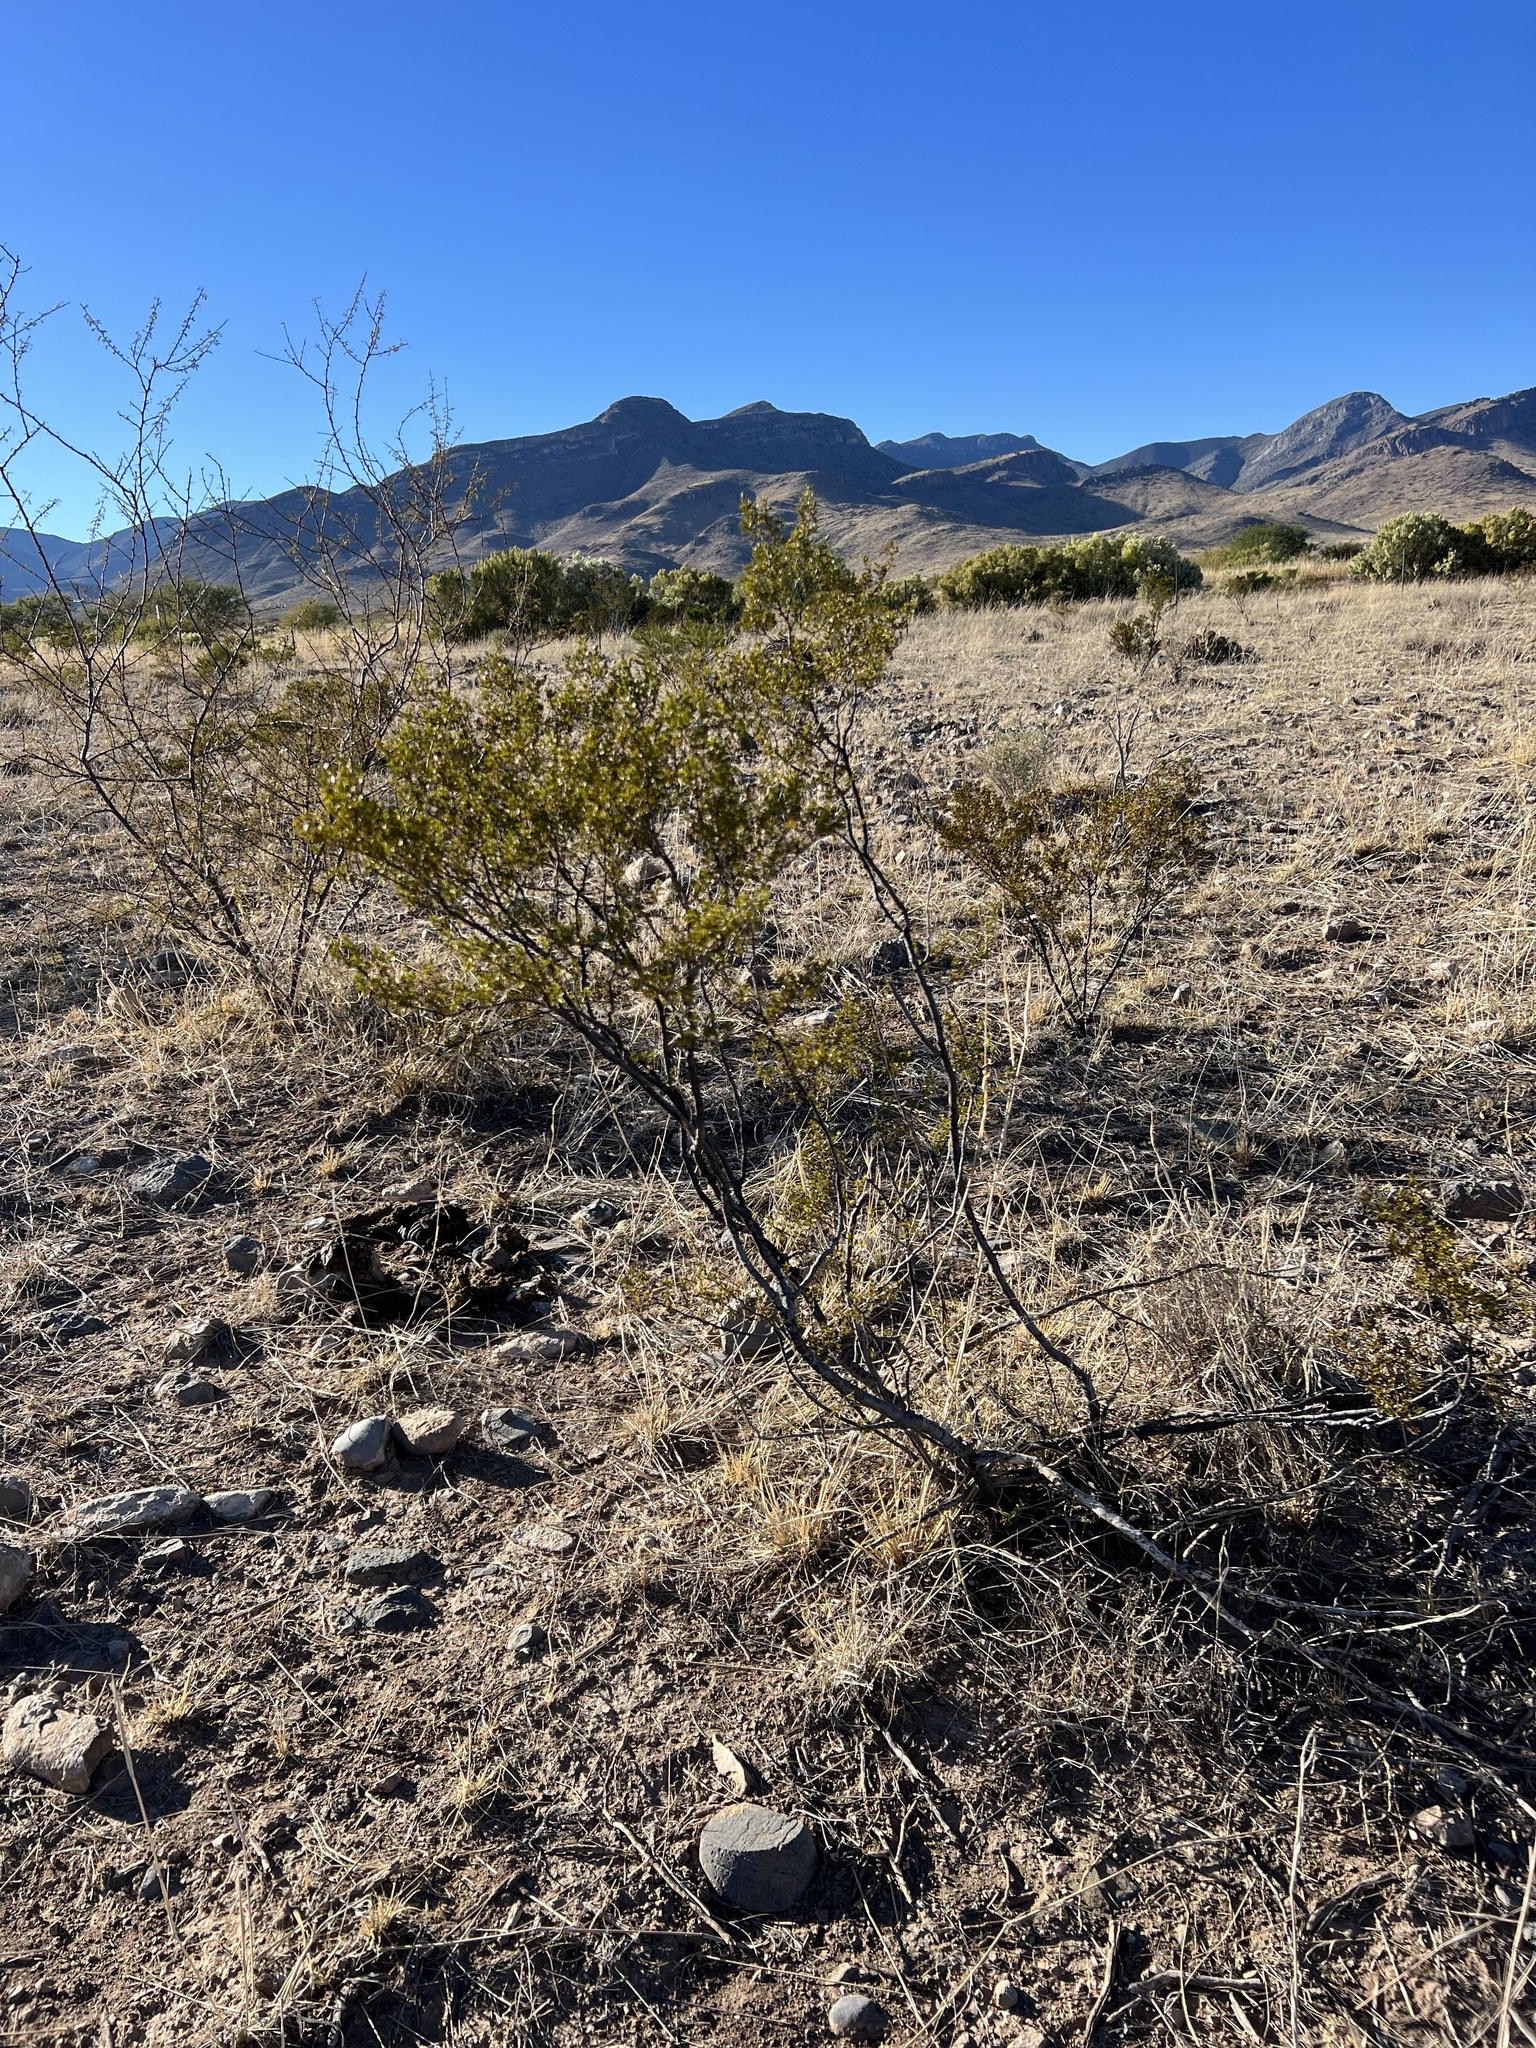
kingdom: Plantae
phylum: Tracheophyta
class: Magnoliopsida
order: Zygophyllales
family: Zygophyllaceae
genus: Larrea
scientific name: Larrea tridentata
